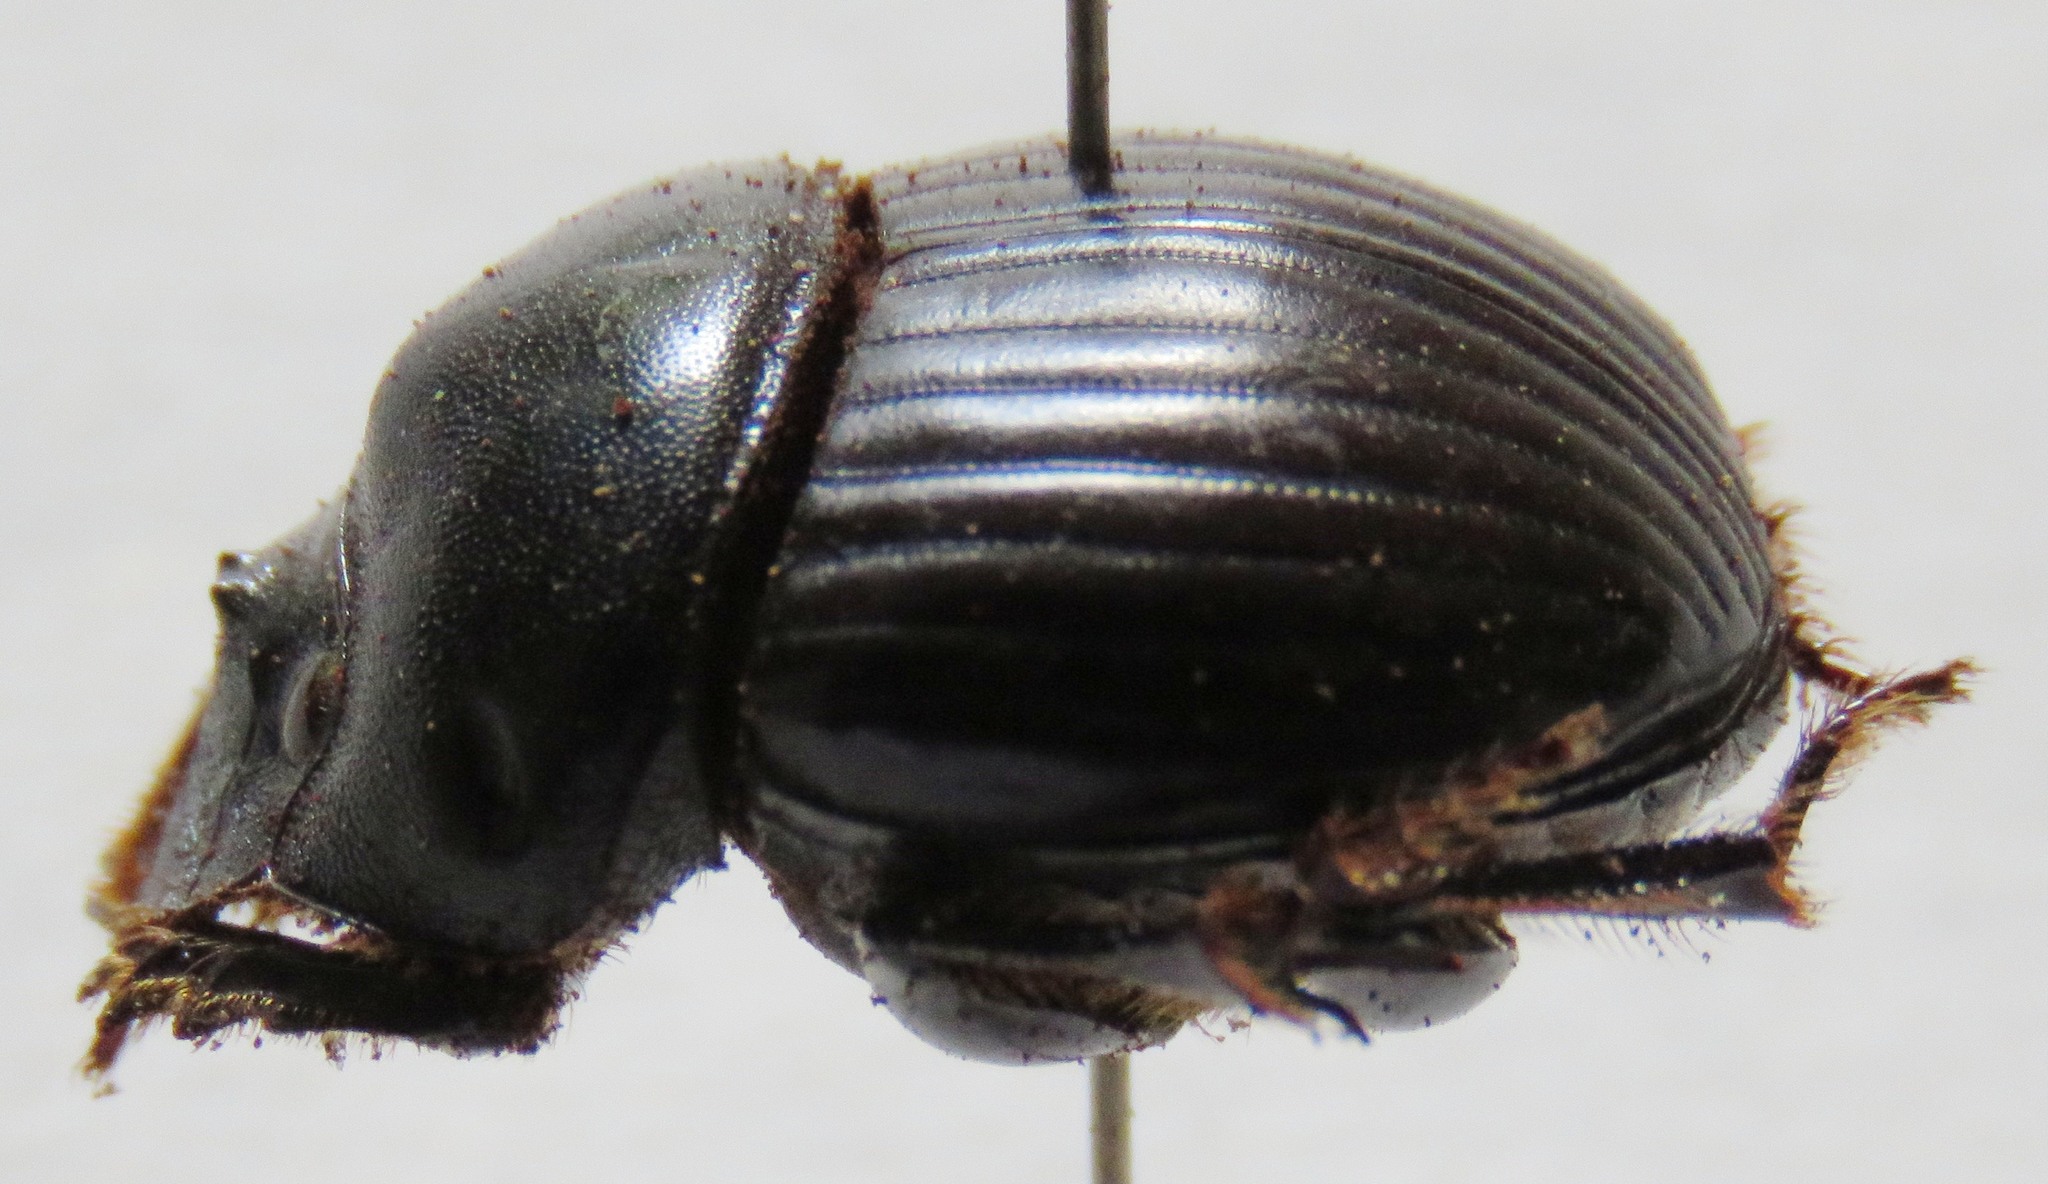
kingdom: Animalia
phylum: Arthropoda
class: Insecta
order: Coleoptera
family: Scarabaeidae
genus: Dichotomius
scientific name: Dichotomius centralis
